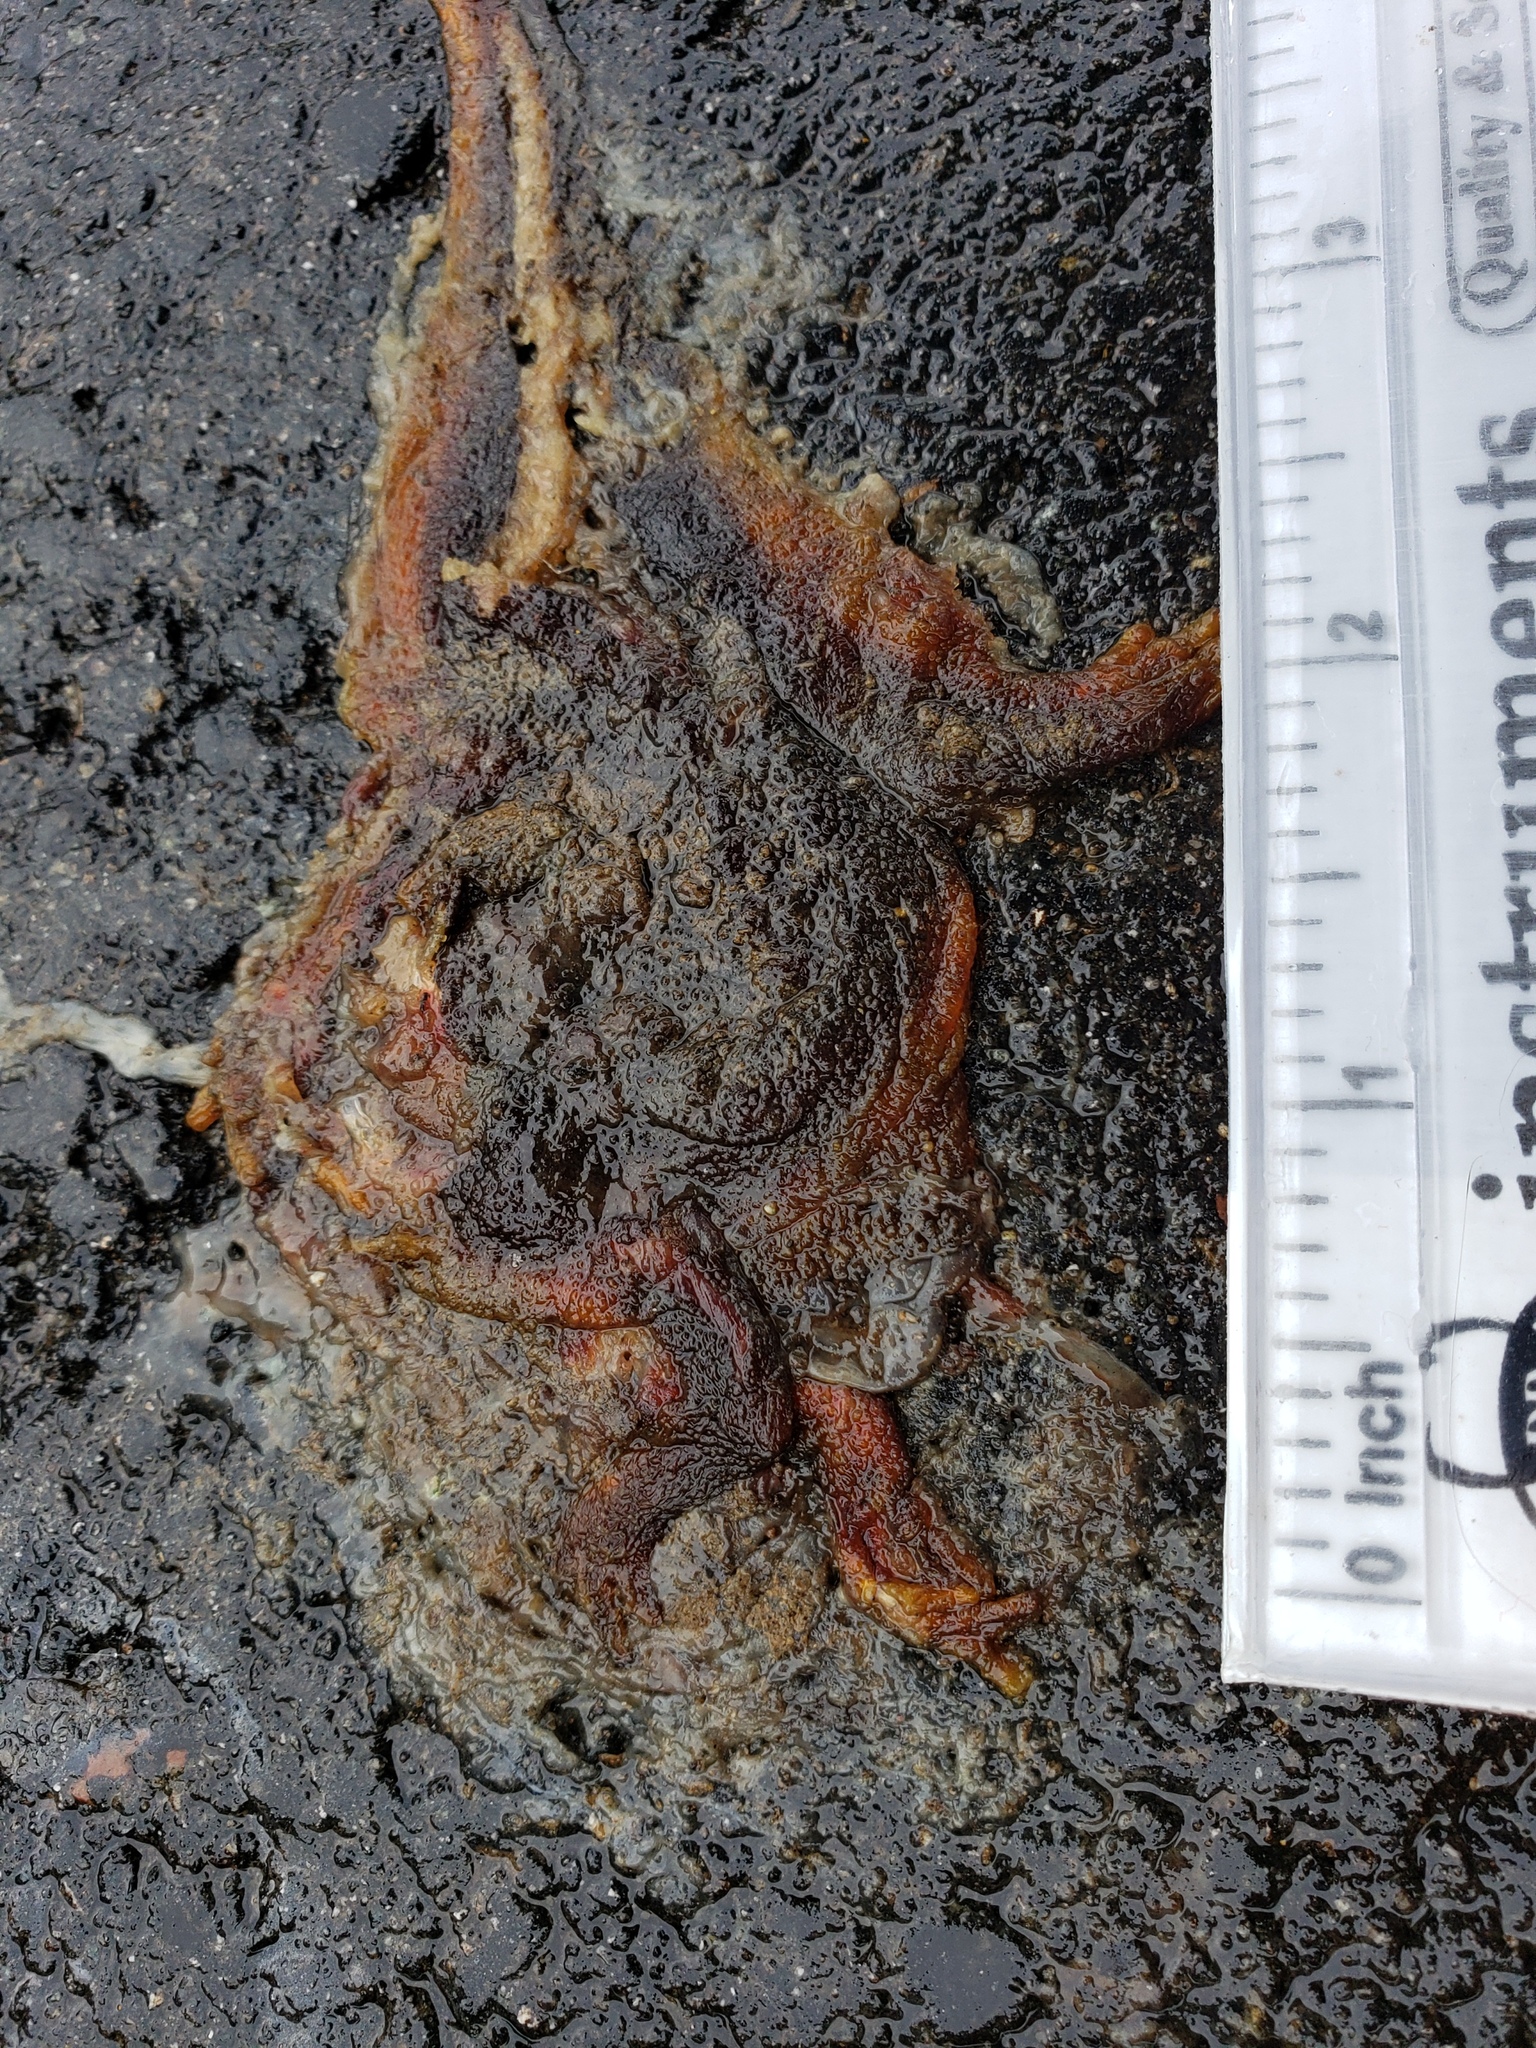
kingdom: Animalia
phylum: Chordata
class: Amphibia
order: Caudata
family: Salamandridae
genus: Taricha
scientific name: Taricha
